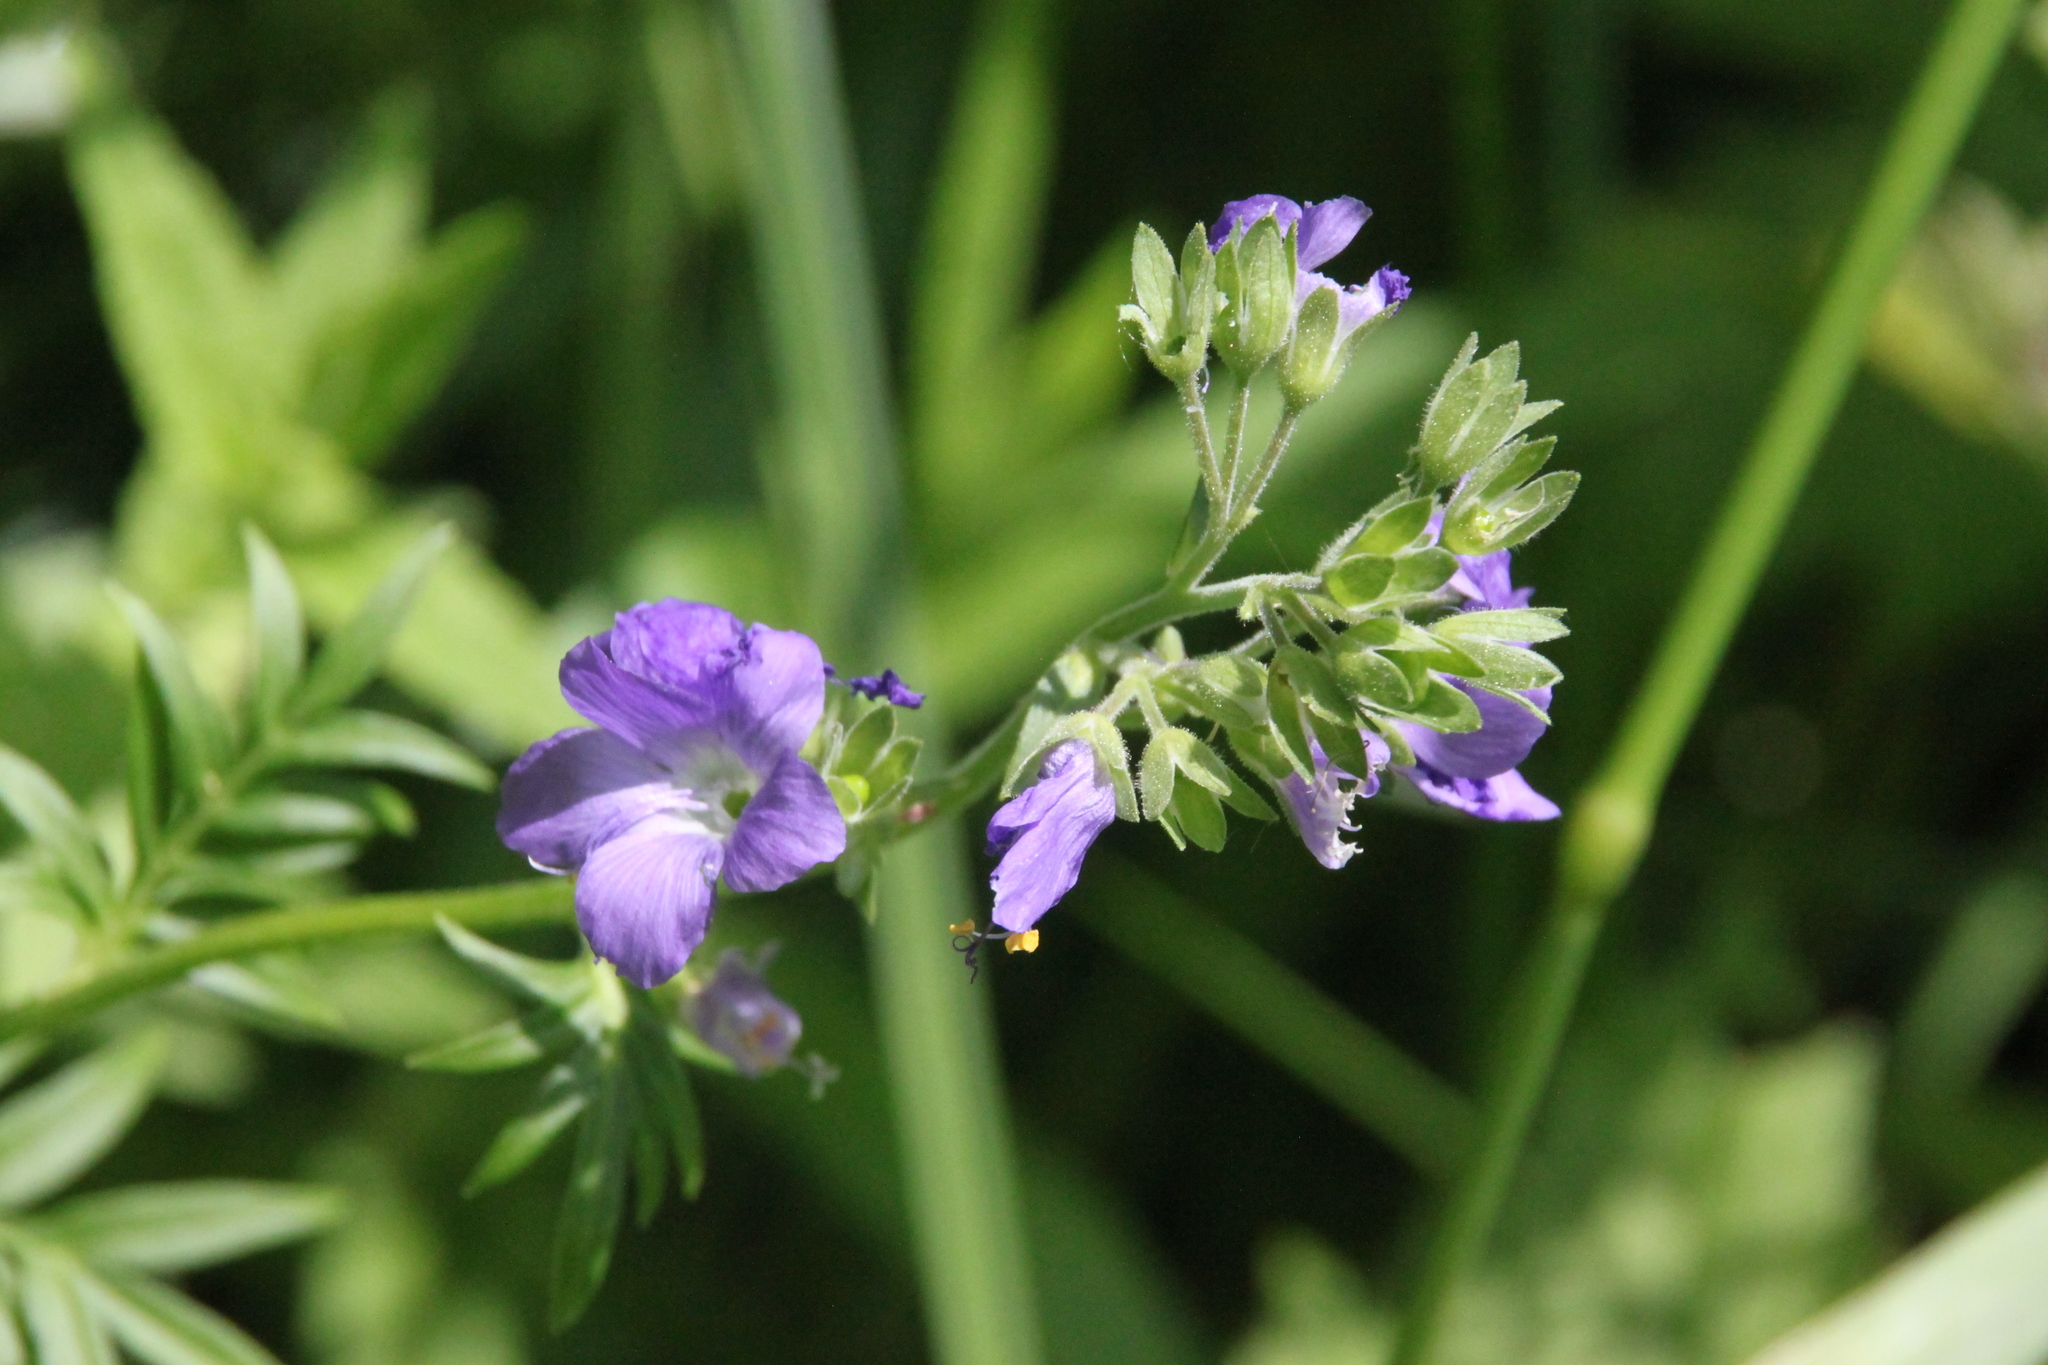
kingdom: Plantae
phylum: Tracheophyta
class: Magnoliopsida
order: Ericales
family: Polemoniaceae
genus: Polemonium
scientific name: Polemonium caeruleum
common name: Jacob's-ladder
